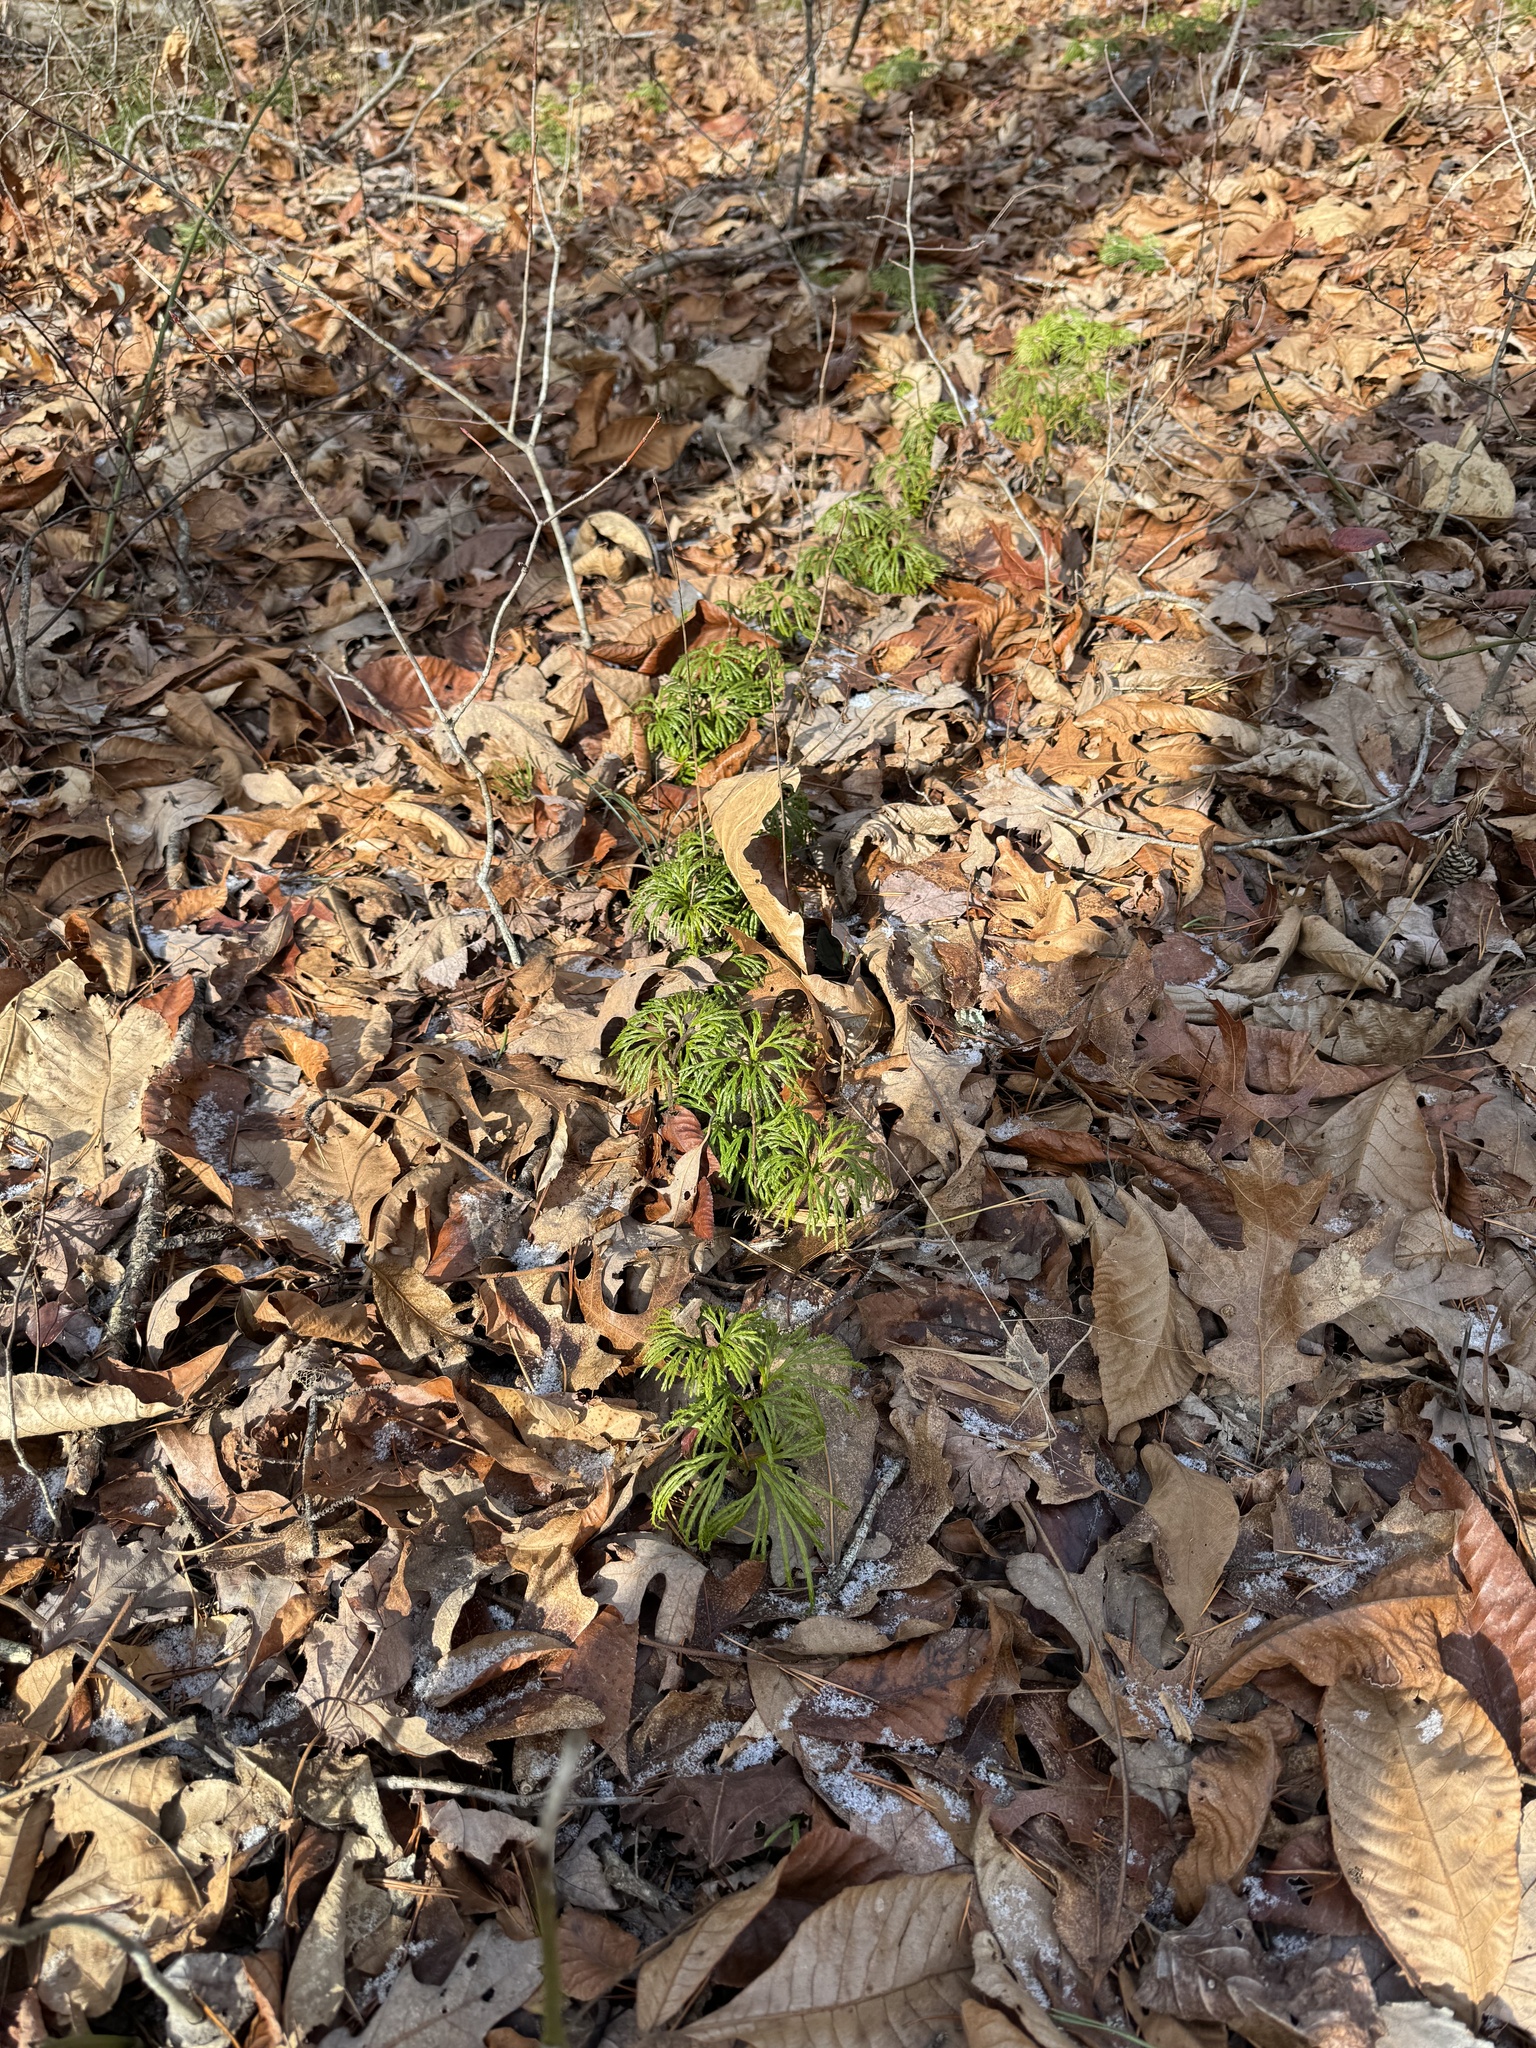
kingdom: Plantae
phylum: Tracheophyta
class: Lycopodiopsida
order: Lycopodiales
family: Lycopodiaceae
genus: Diphasiastrum
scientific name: Diphasiastrum digitatum
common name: Southern running-pine
